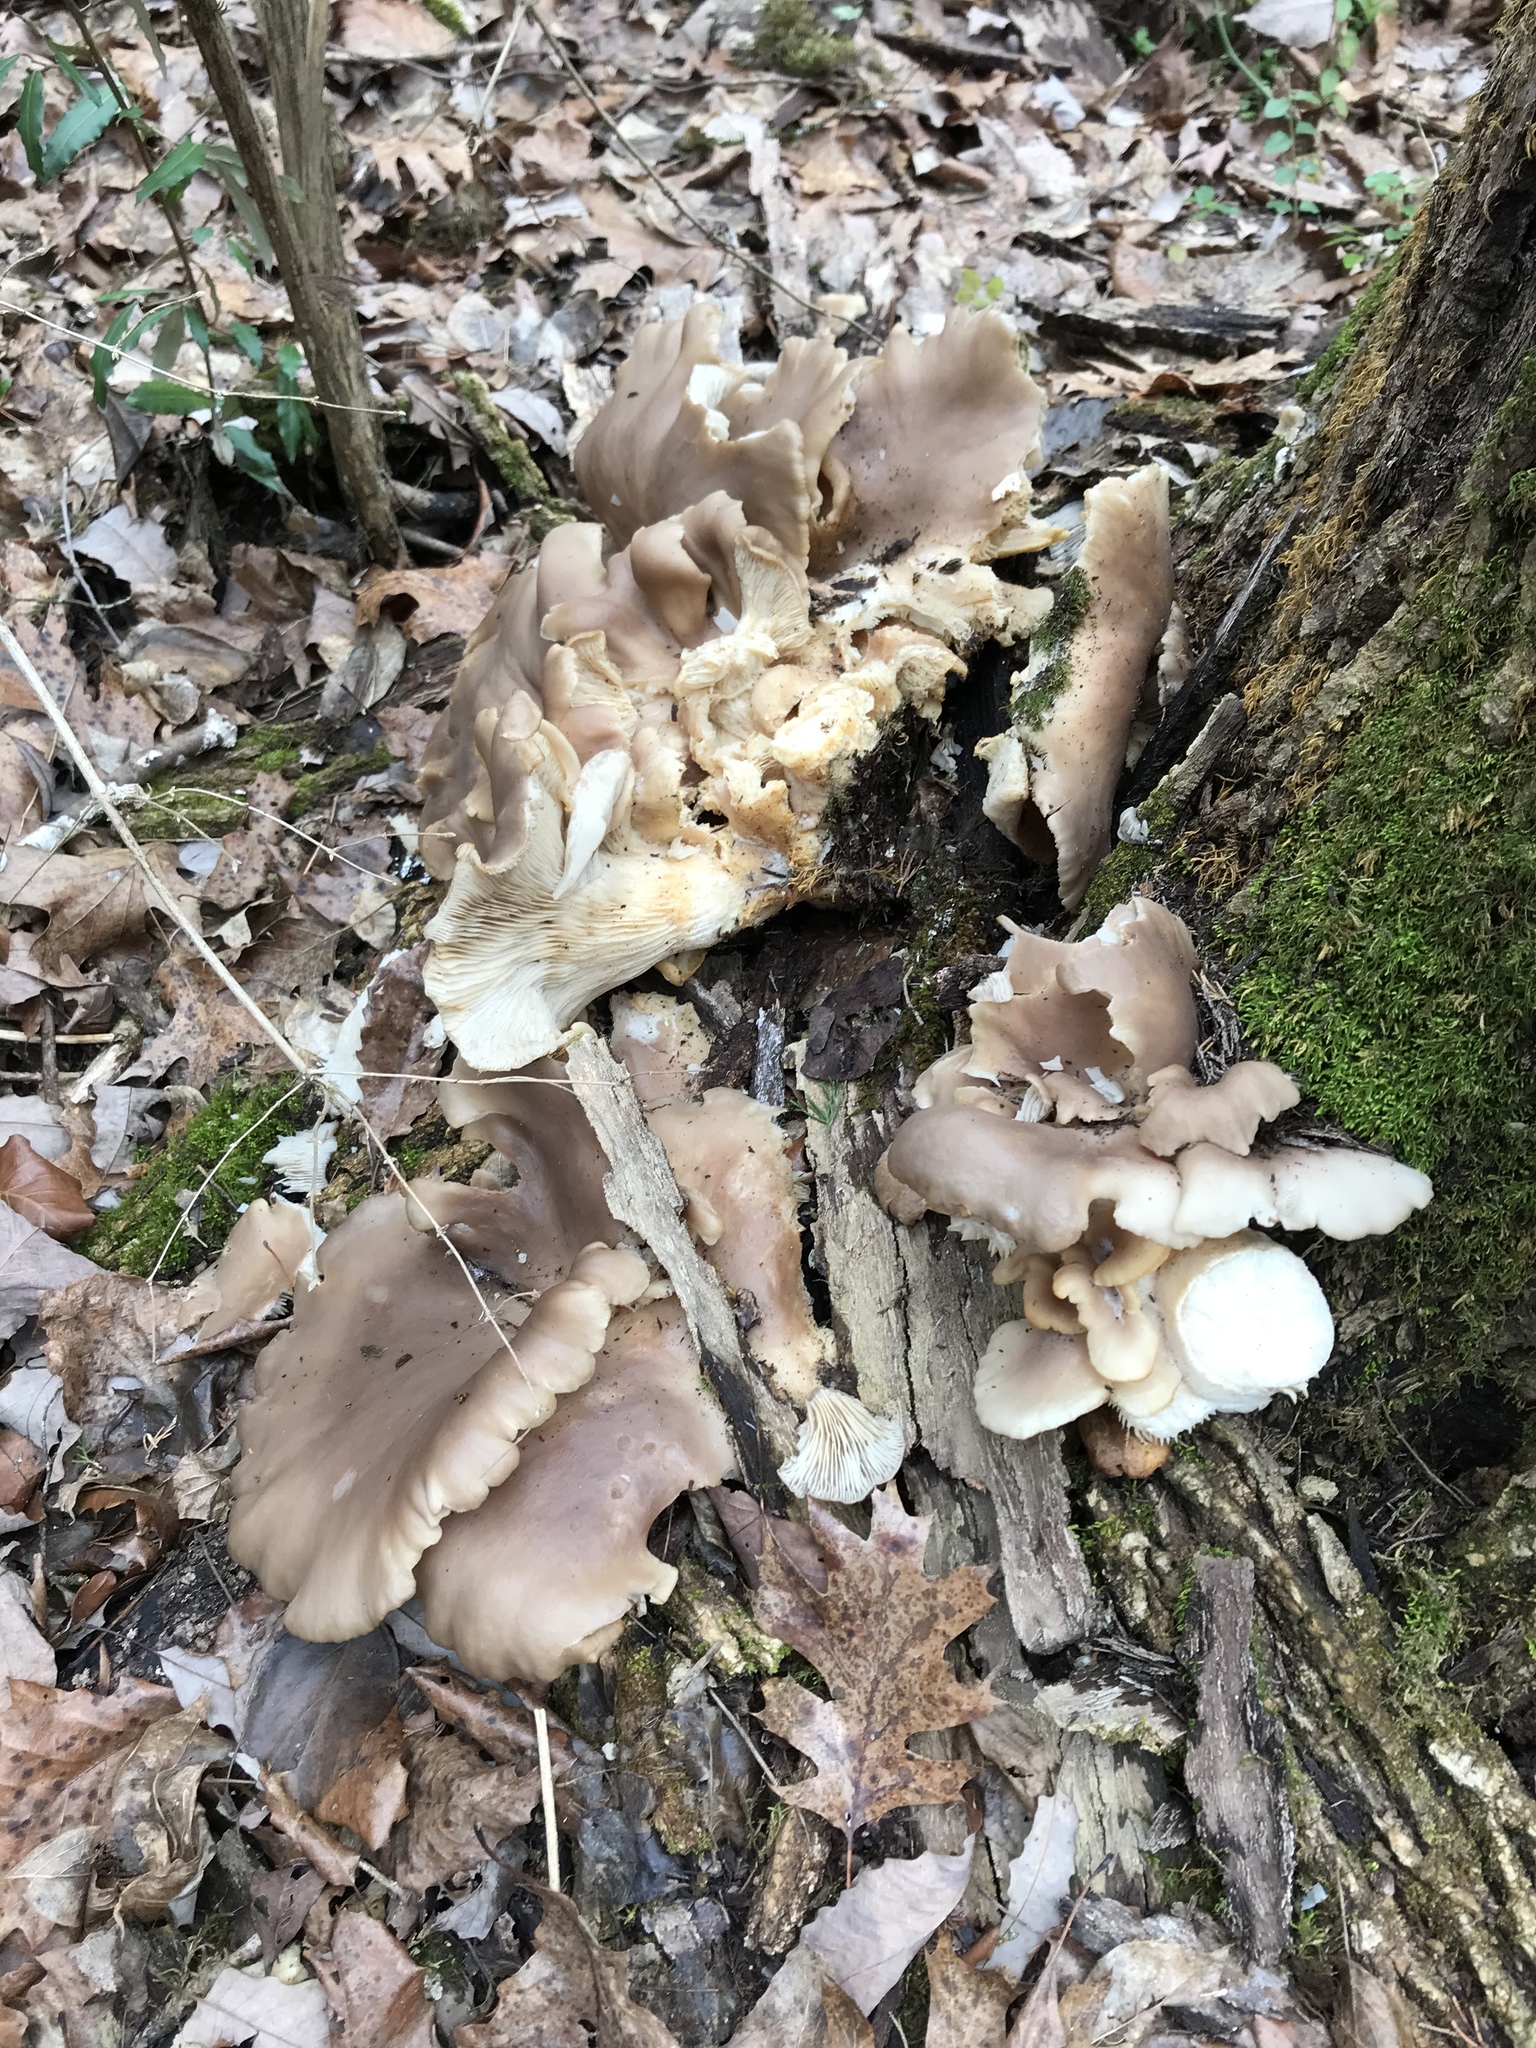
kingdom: Fungi
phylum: Basidiomycota
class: Agaricomycetes
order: Agaricales
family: Pleurotaceae
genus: Pleurotus
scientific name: Pleurotus ostreatus
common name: Oyster mushroom
